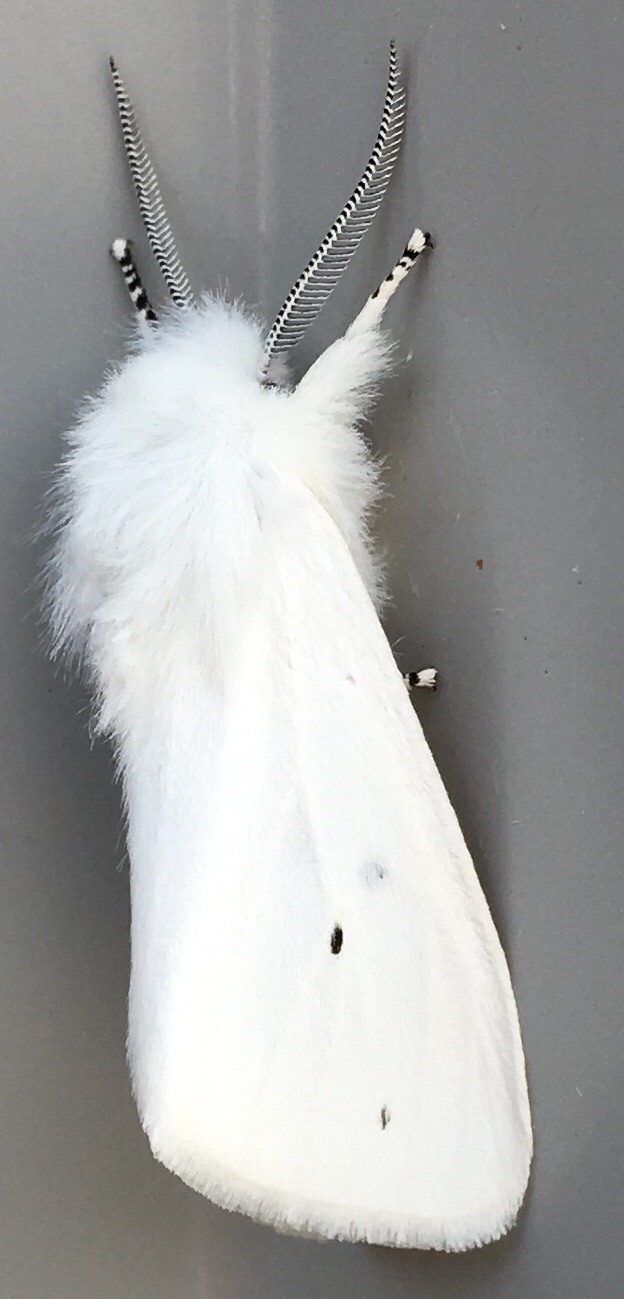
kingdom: Animalia
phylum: Arthropoda
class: Insecta
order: Lepidoptera
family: Erebidae
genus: Spilosoma
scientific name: Spilosoma virginica
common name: Virginia tiger moth
